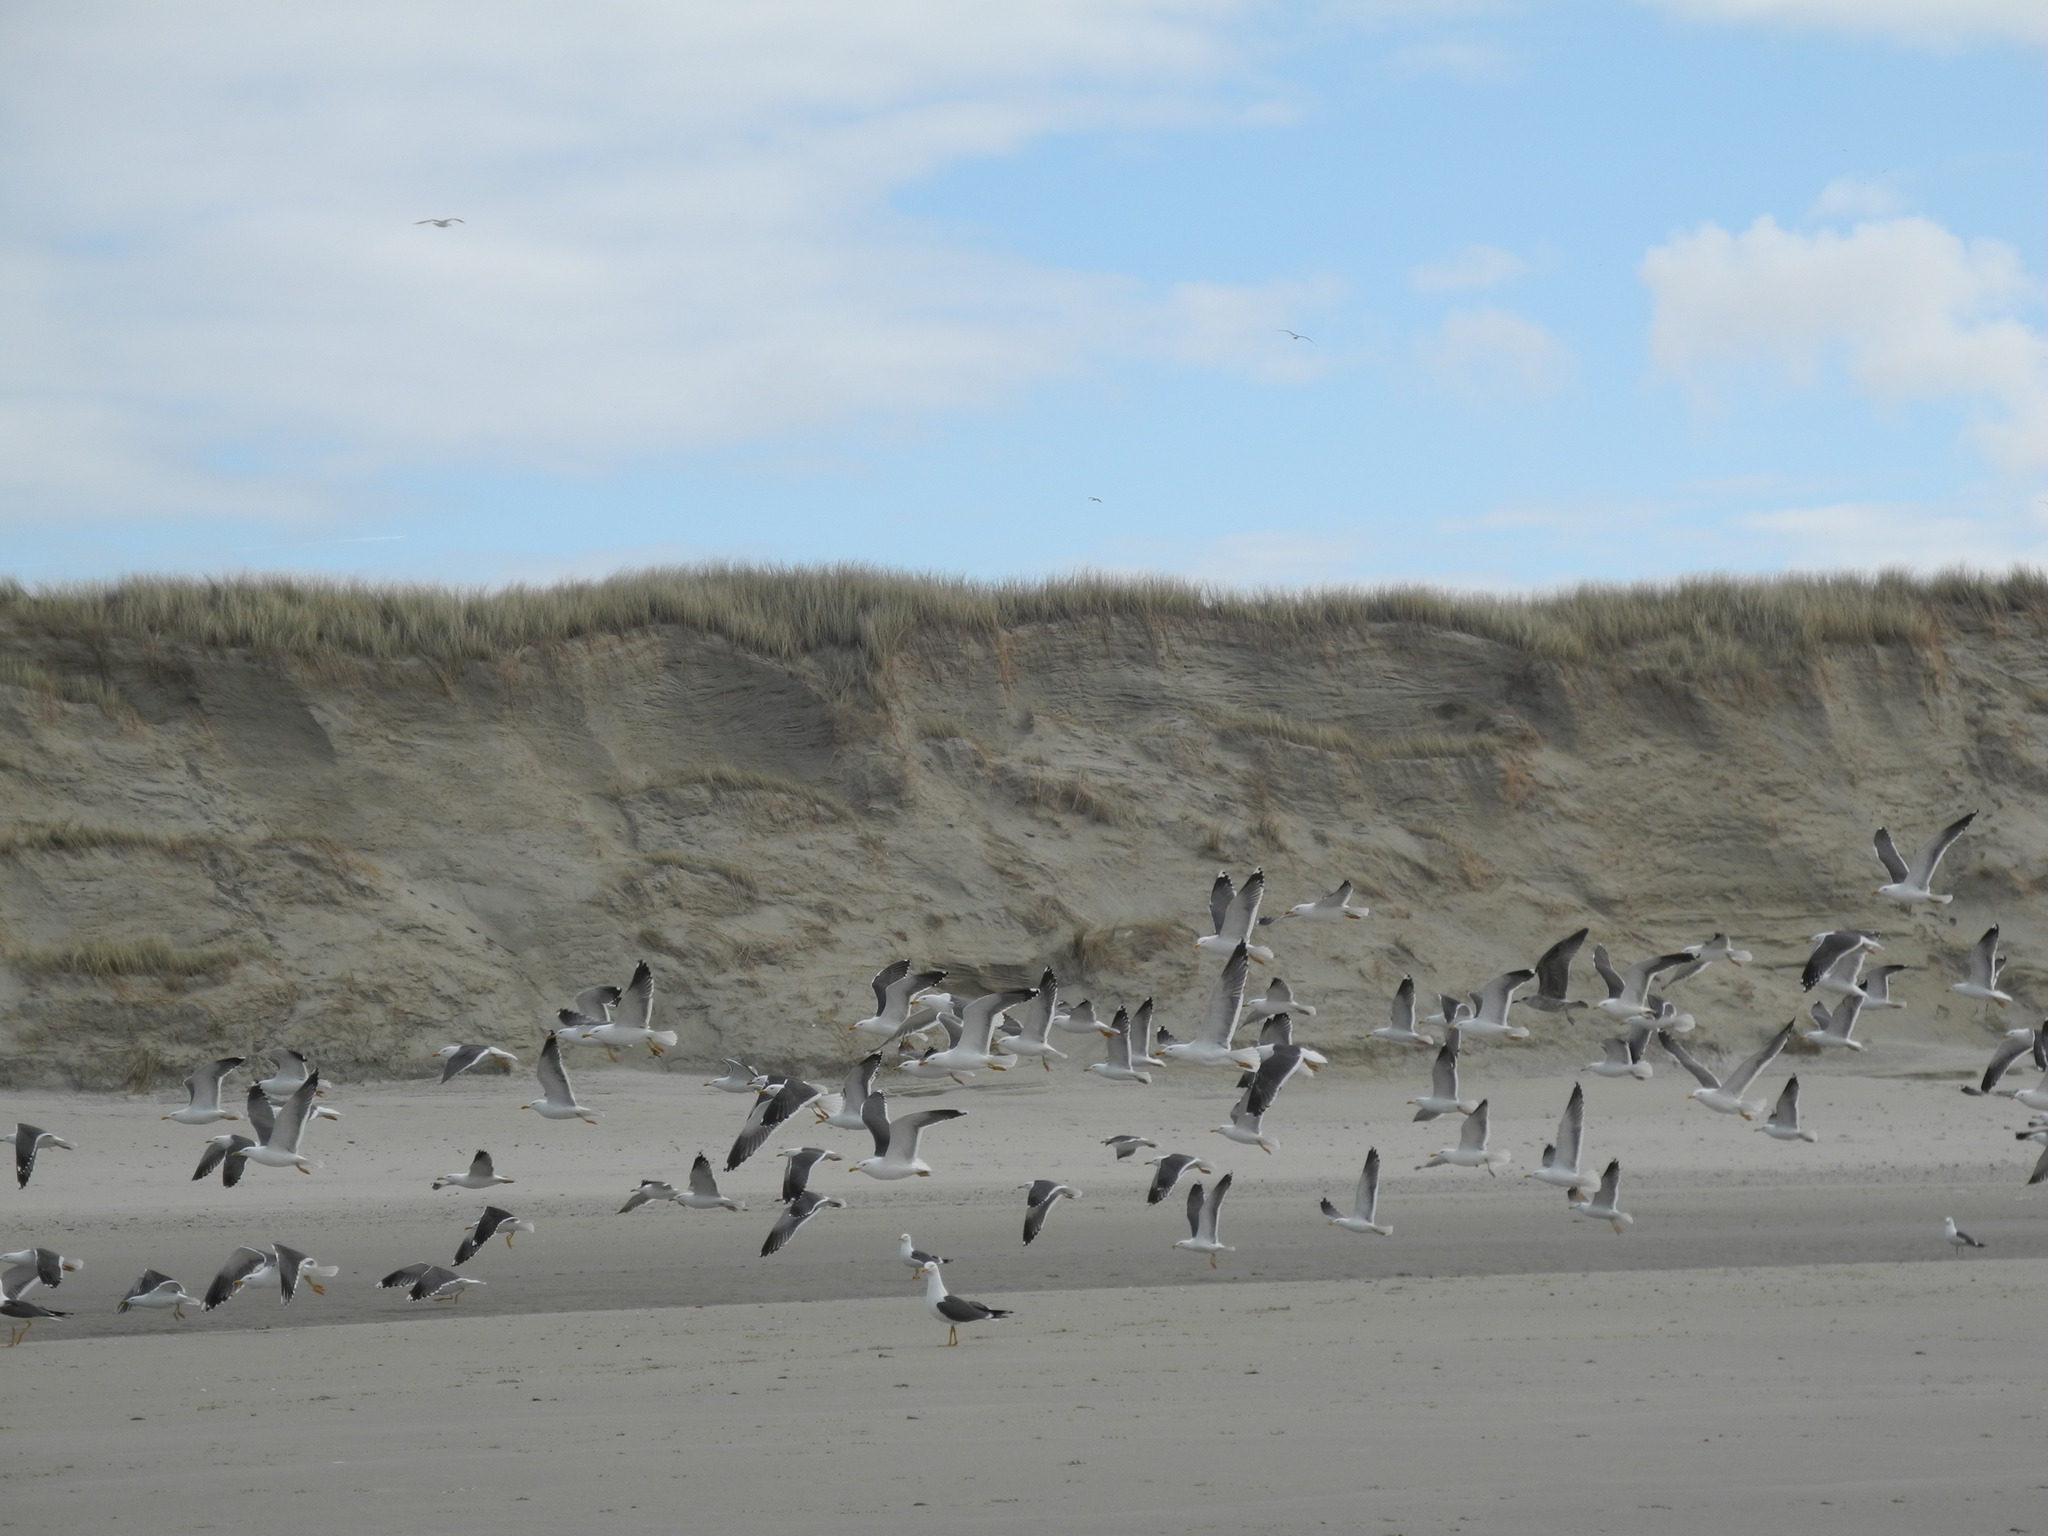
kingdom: Animalia
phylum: Chordata
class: Aves
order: Charadriiformes
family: Laridae
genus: Larus
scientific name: Larus fuscus
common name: Lesser black-backed gull
